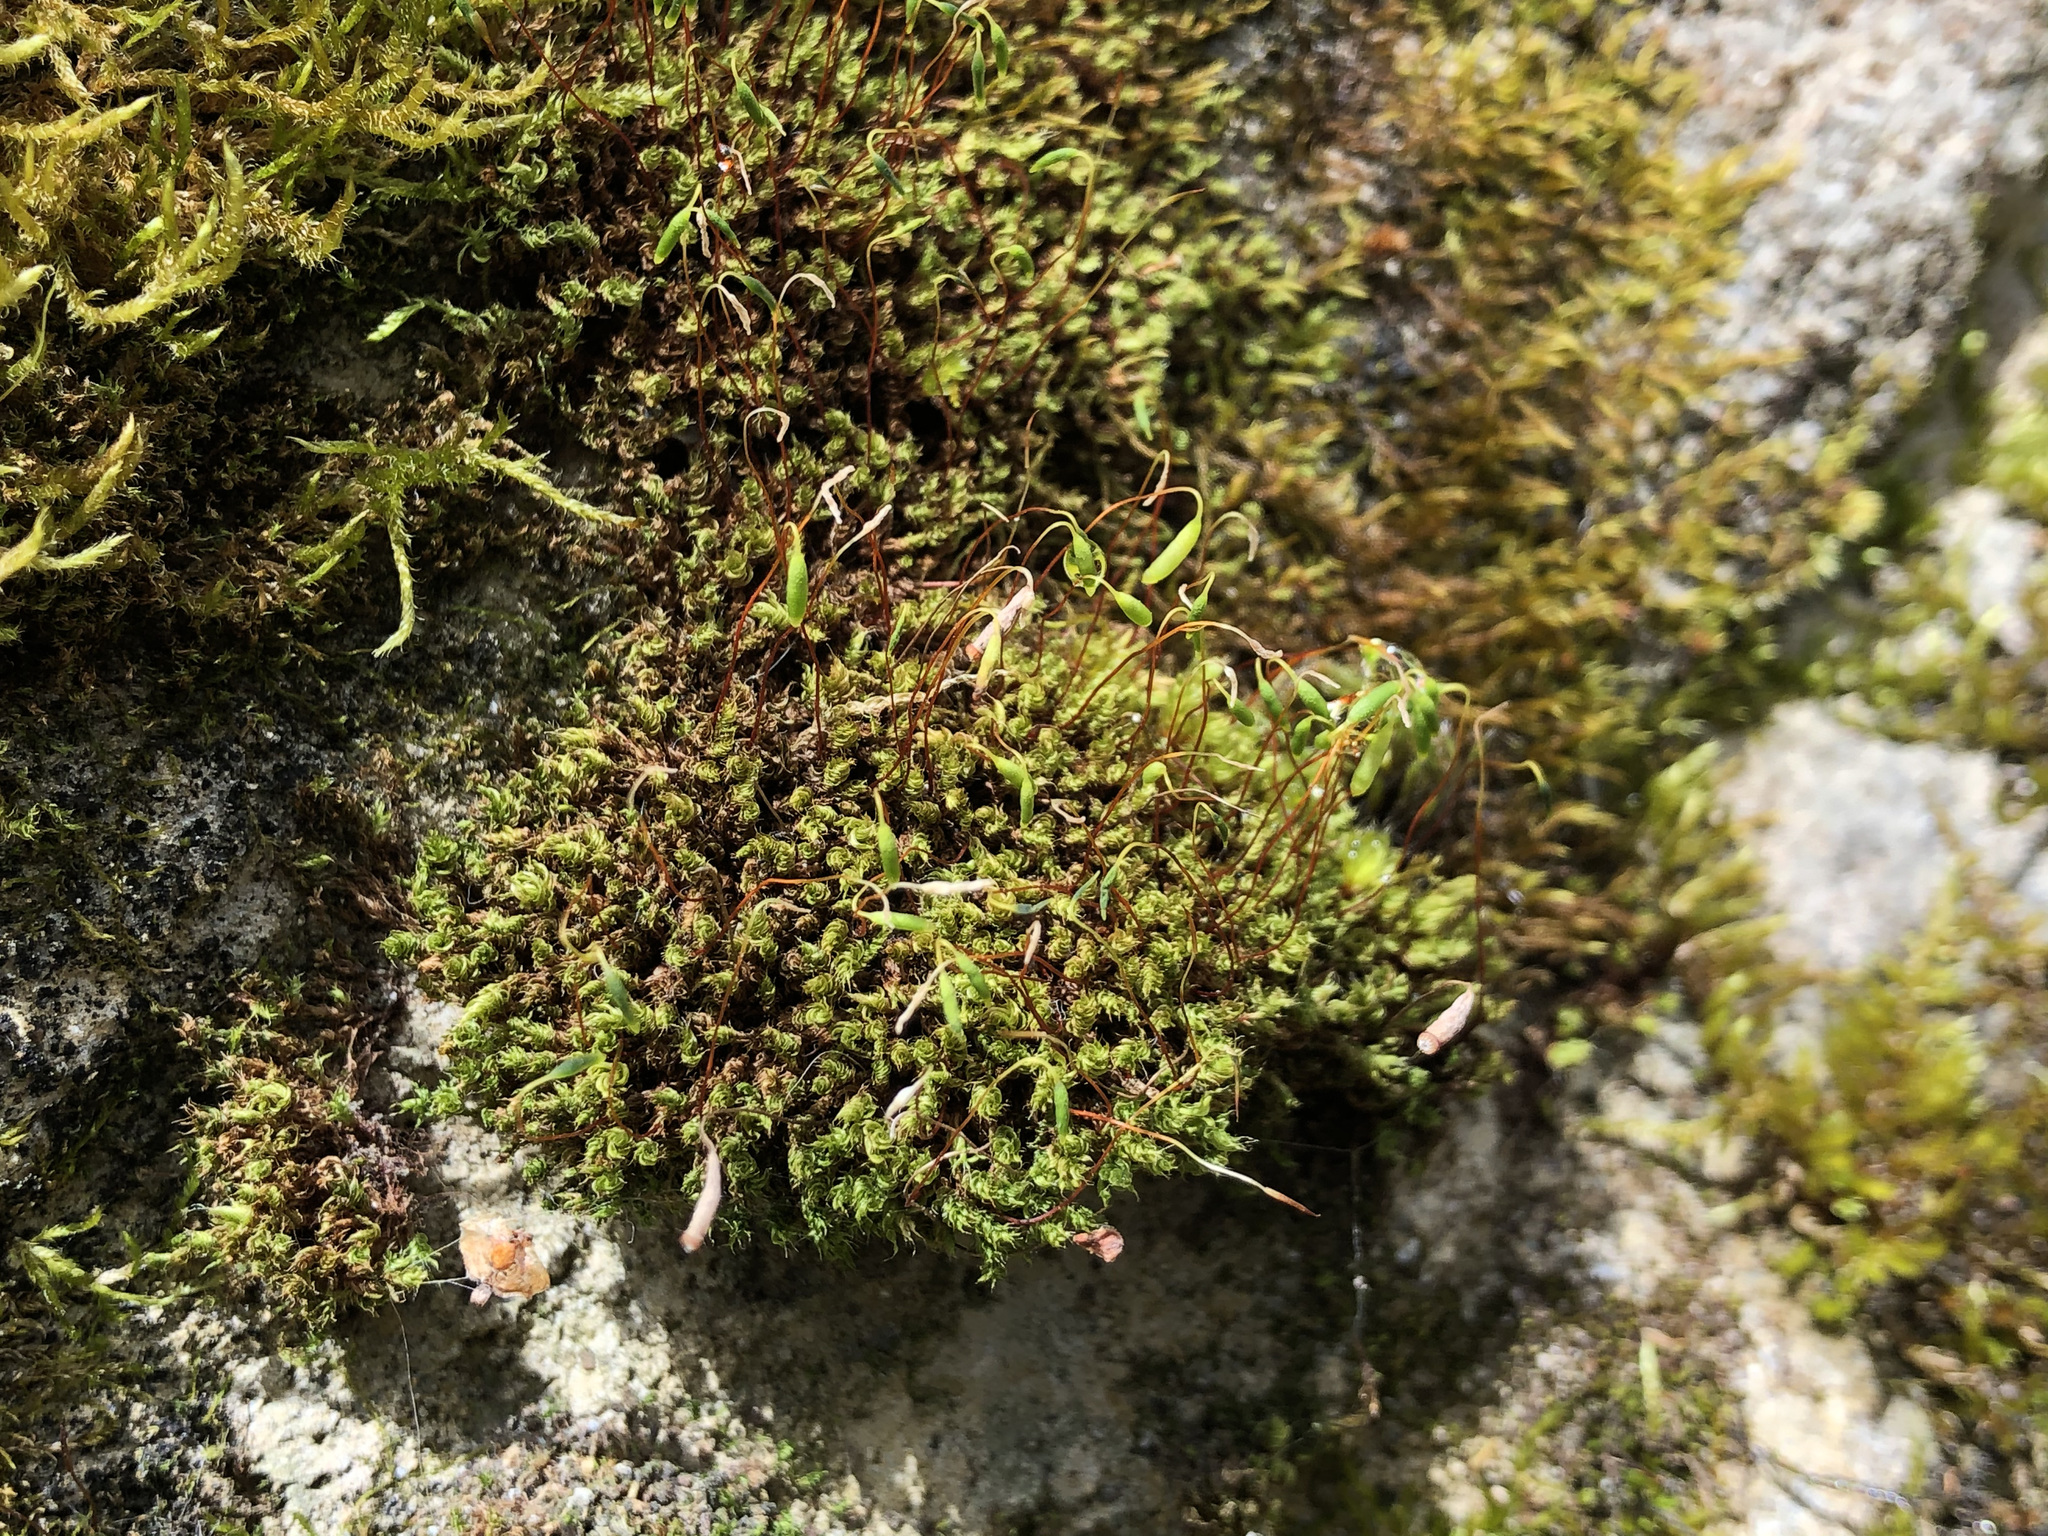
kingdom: Plantae
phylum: Bryophyta
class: Bryopsida
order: Bryales
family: Bryaceae
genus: Rosulabryum
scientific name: Rosulabryum capillare
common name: Capillary thread-moss
